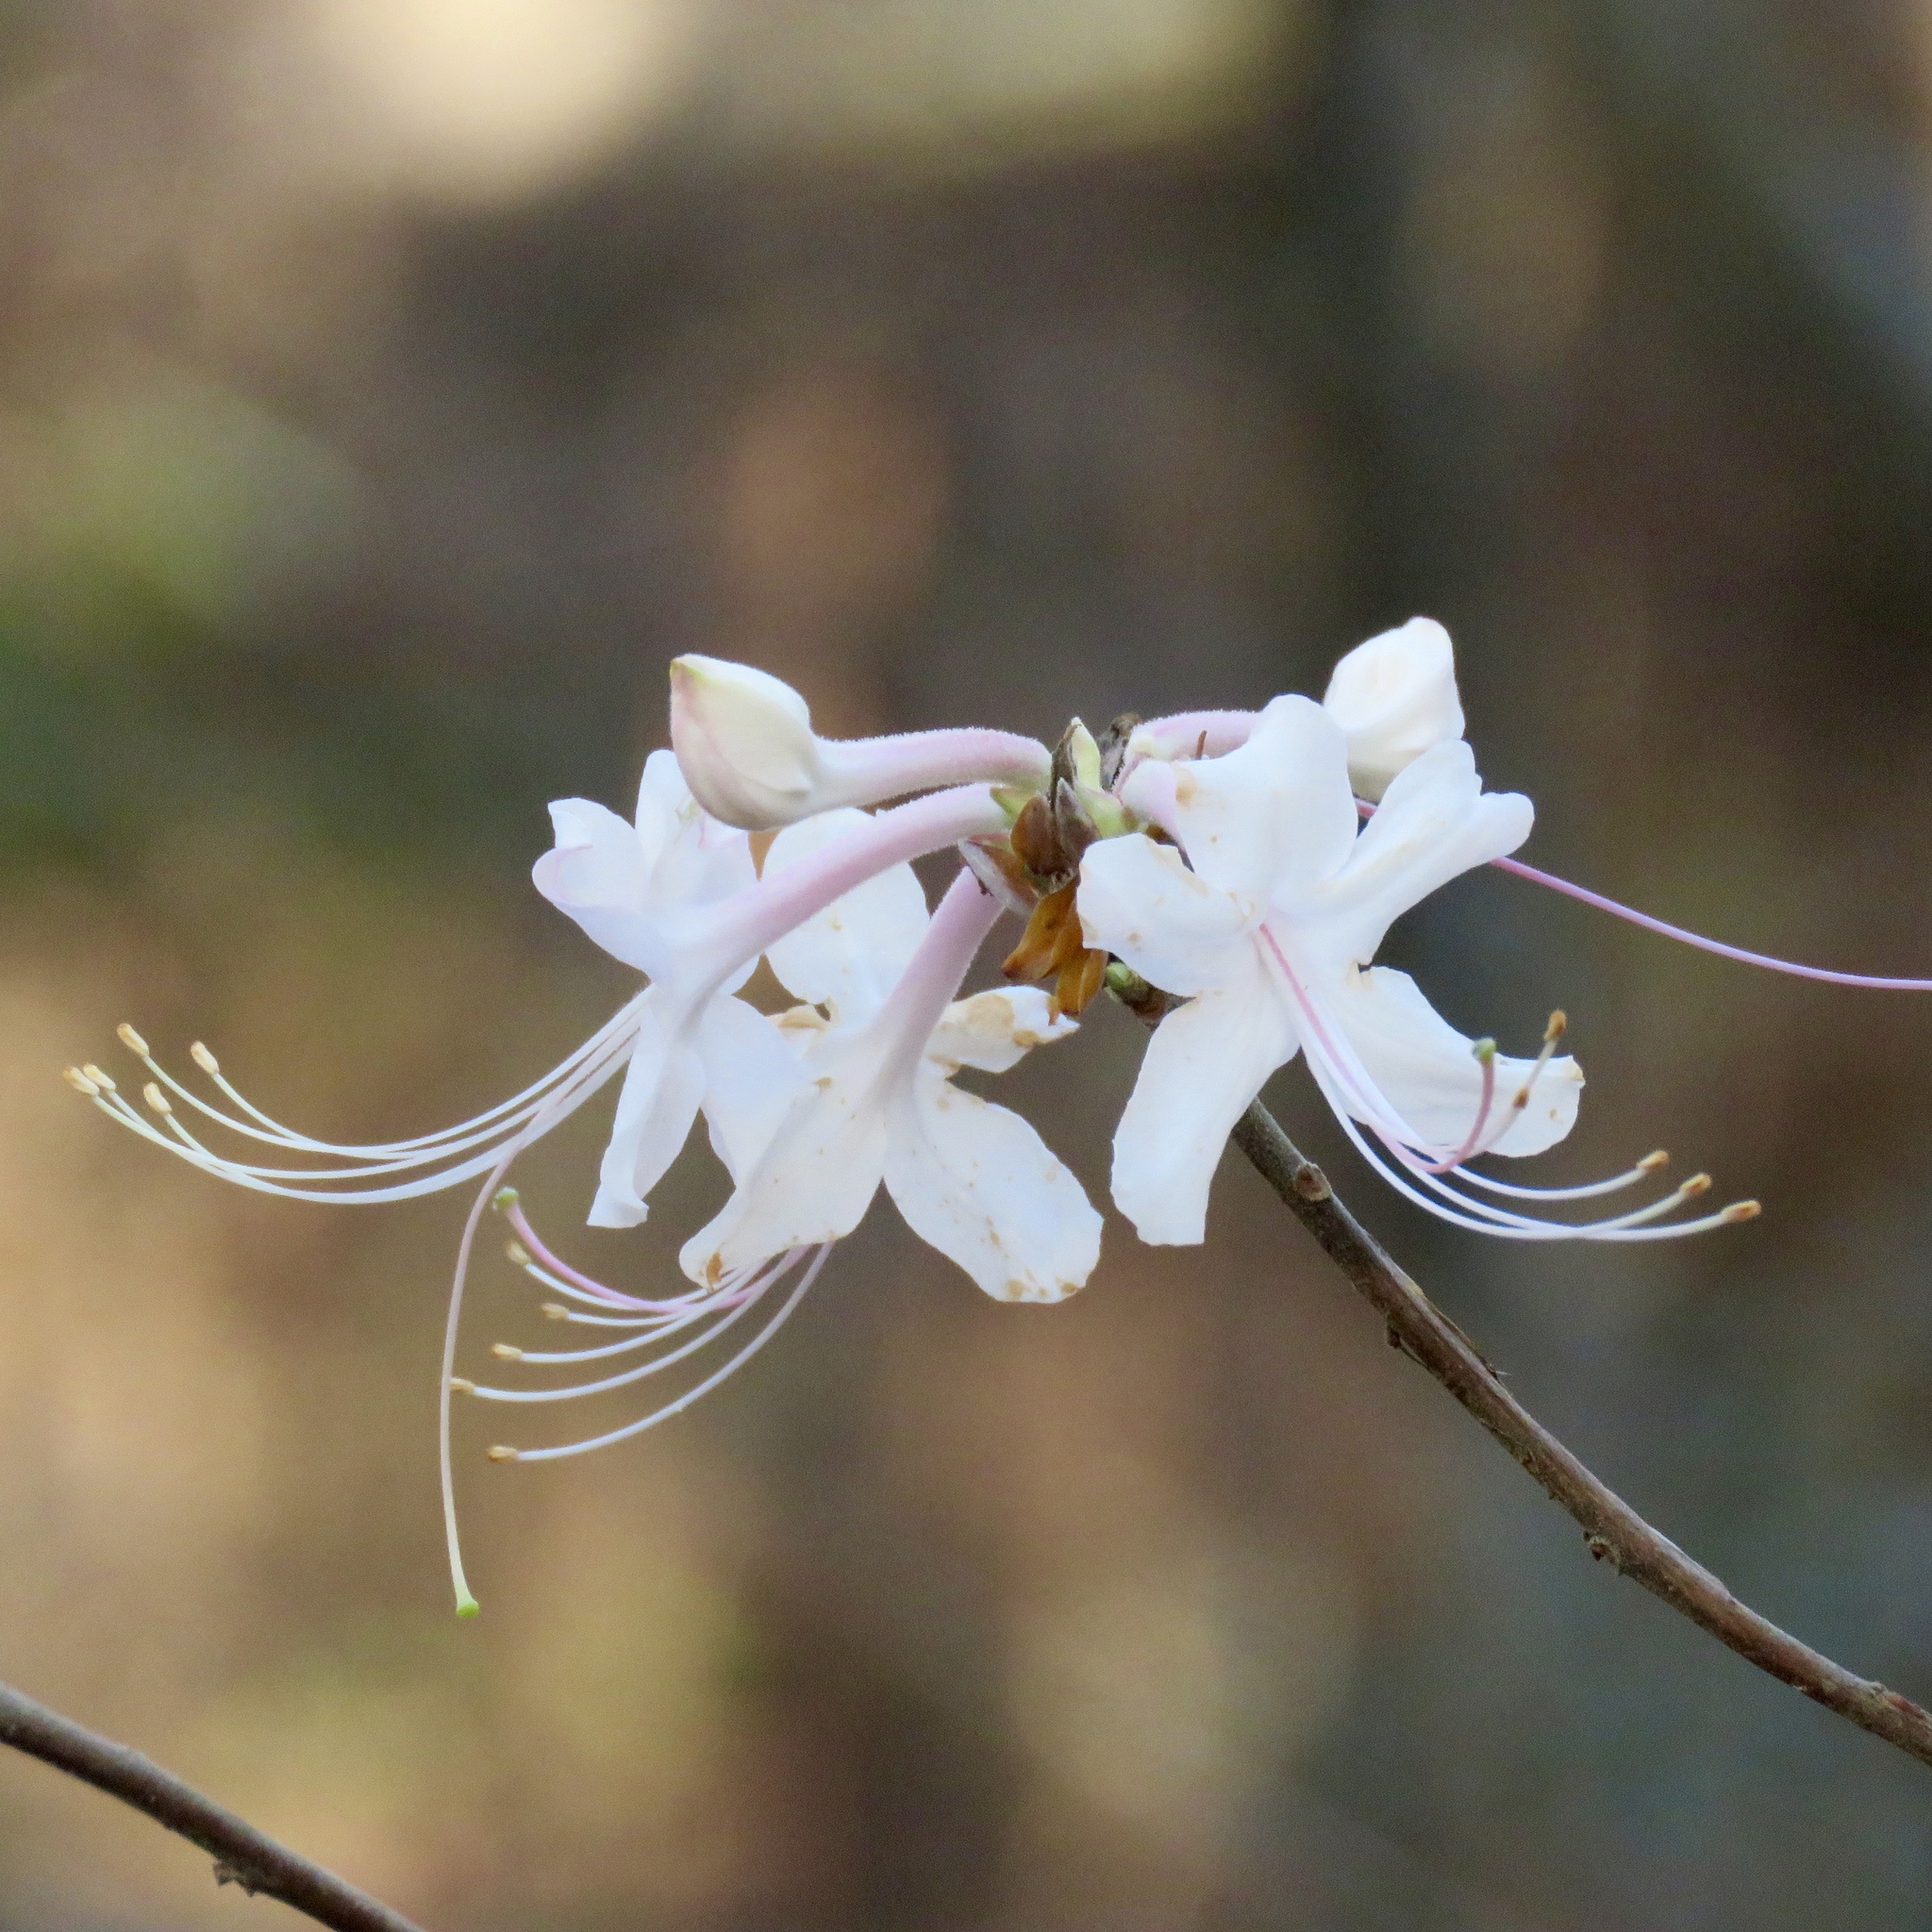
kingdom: Plantae
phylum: Tracheophyta
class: Magnoliopsida
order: Ericales
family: Ericaceae
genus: Rhododendron
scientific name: Rhododendron canescens
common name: Mountain azalea
